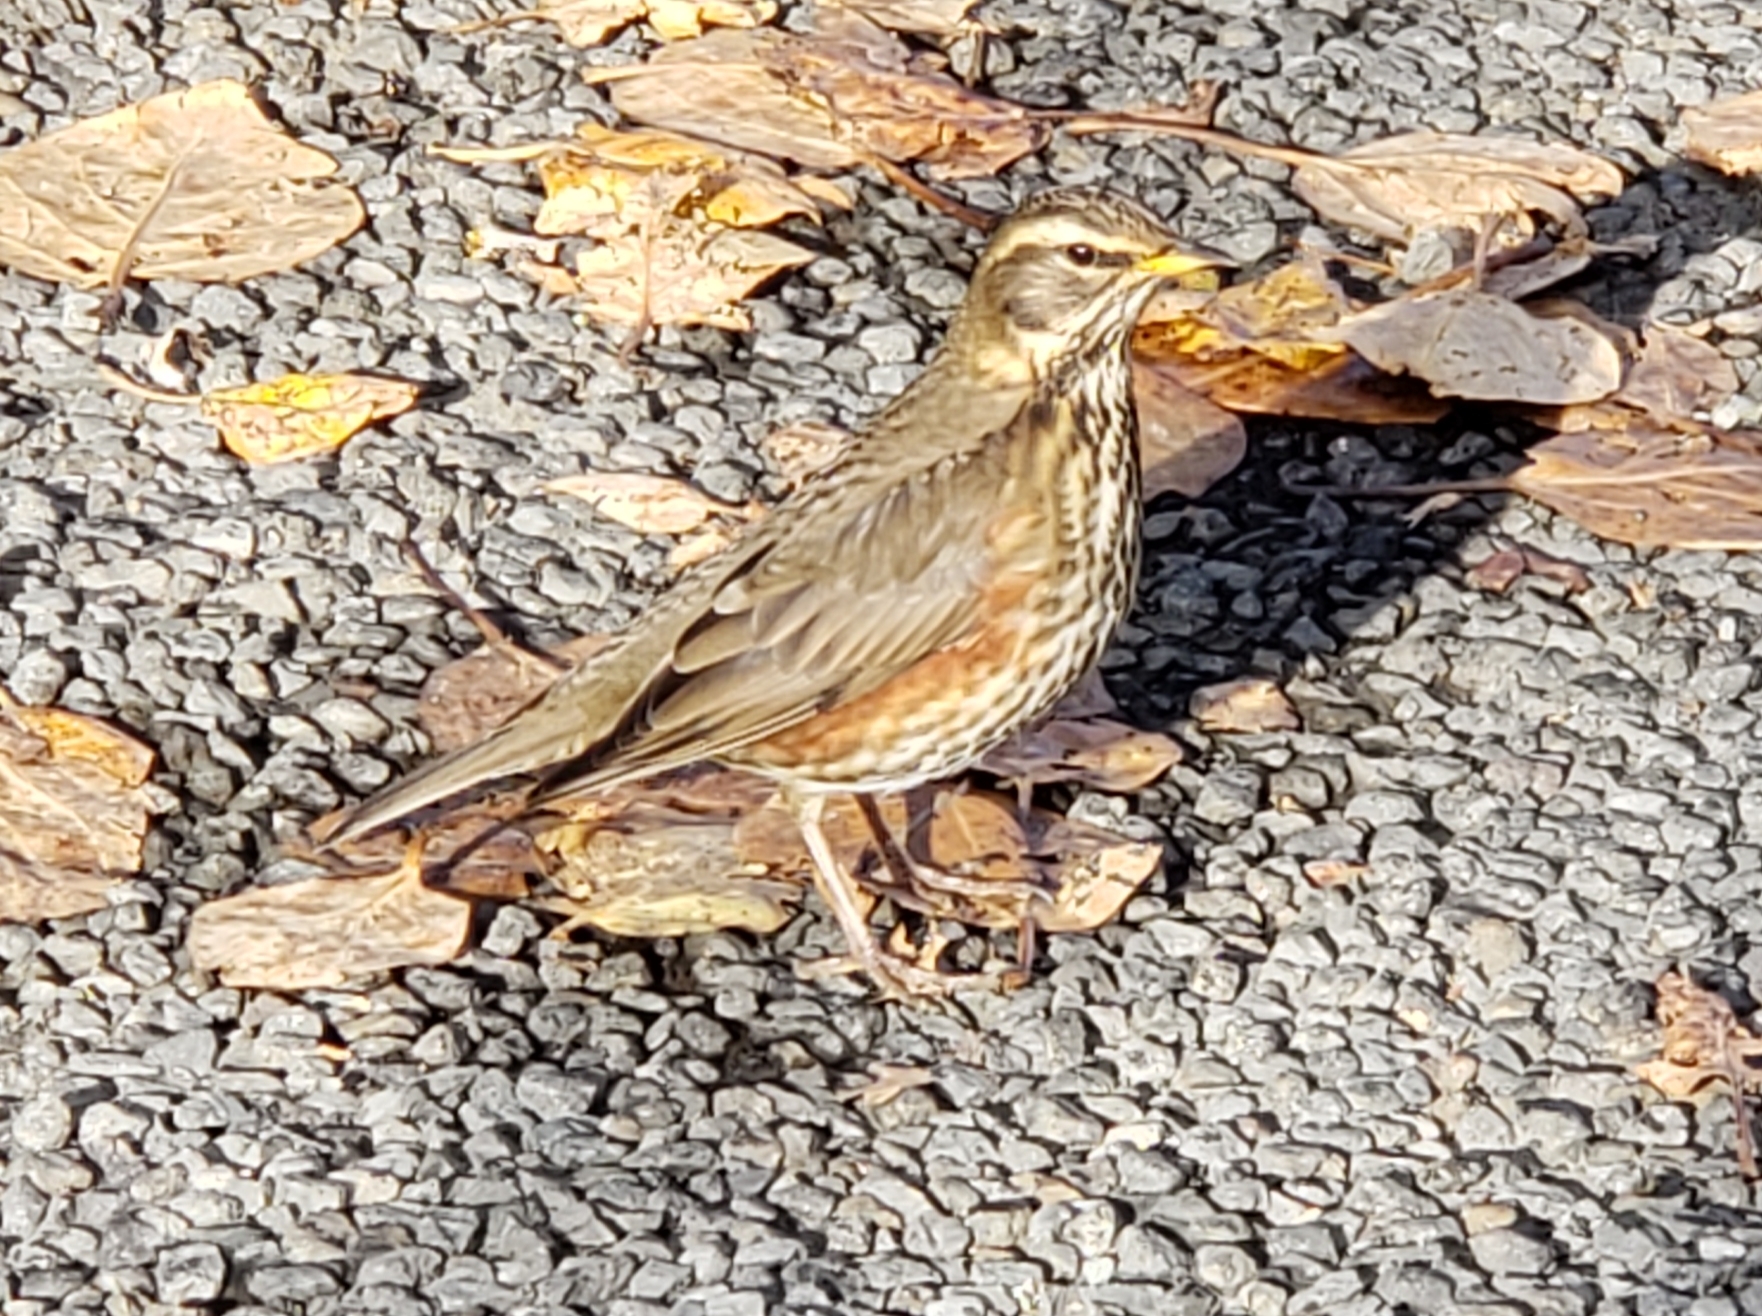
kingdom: Animalia
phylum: Chordata
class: Aves
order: Passeriformes
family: Turdidae
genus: Turdus
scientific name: Turdus iliacus
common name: Redwing
